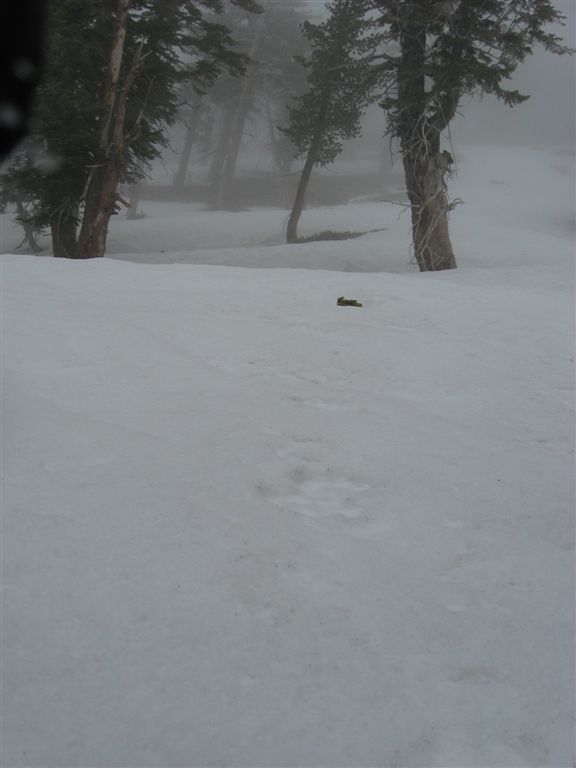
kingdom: Animalia
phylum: Chordata
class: Mammalia
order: Carnivora
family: Canidae
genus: Canis
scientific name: Canis lupus
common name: Gray wolf
